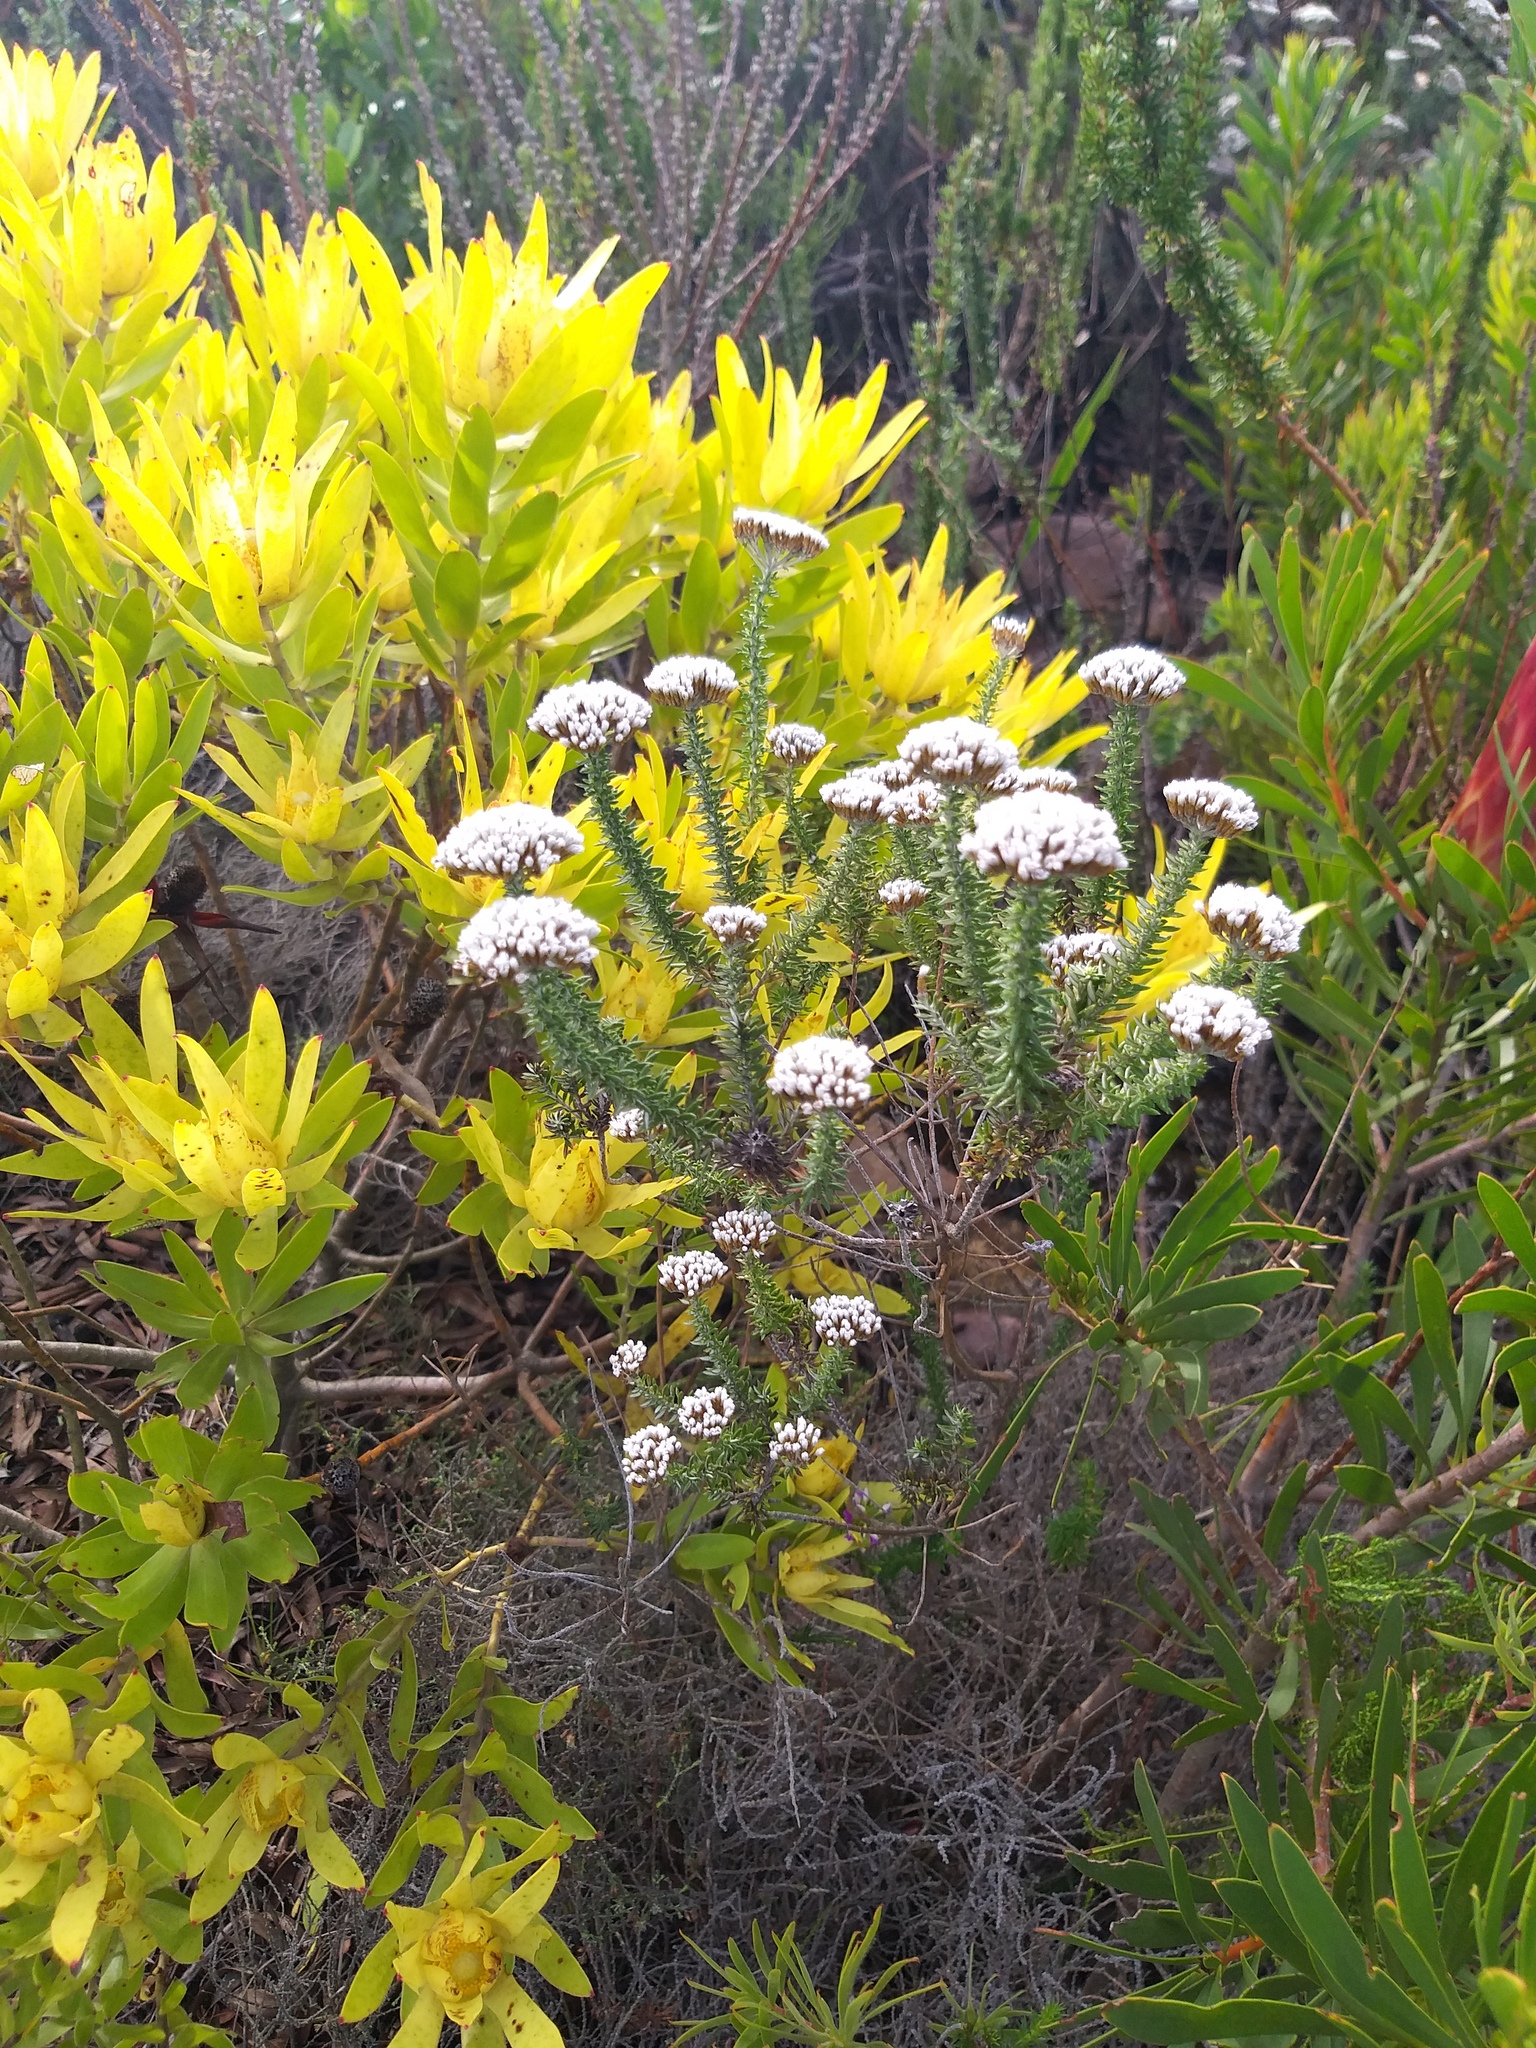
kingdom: Plantae
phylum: Tracheophyta
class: Magnoliopsida
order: Asterales
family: Asteraceae
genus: Metalasia
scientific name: Metalasia densa
